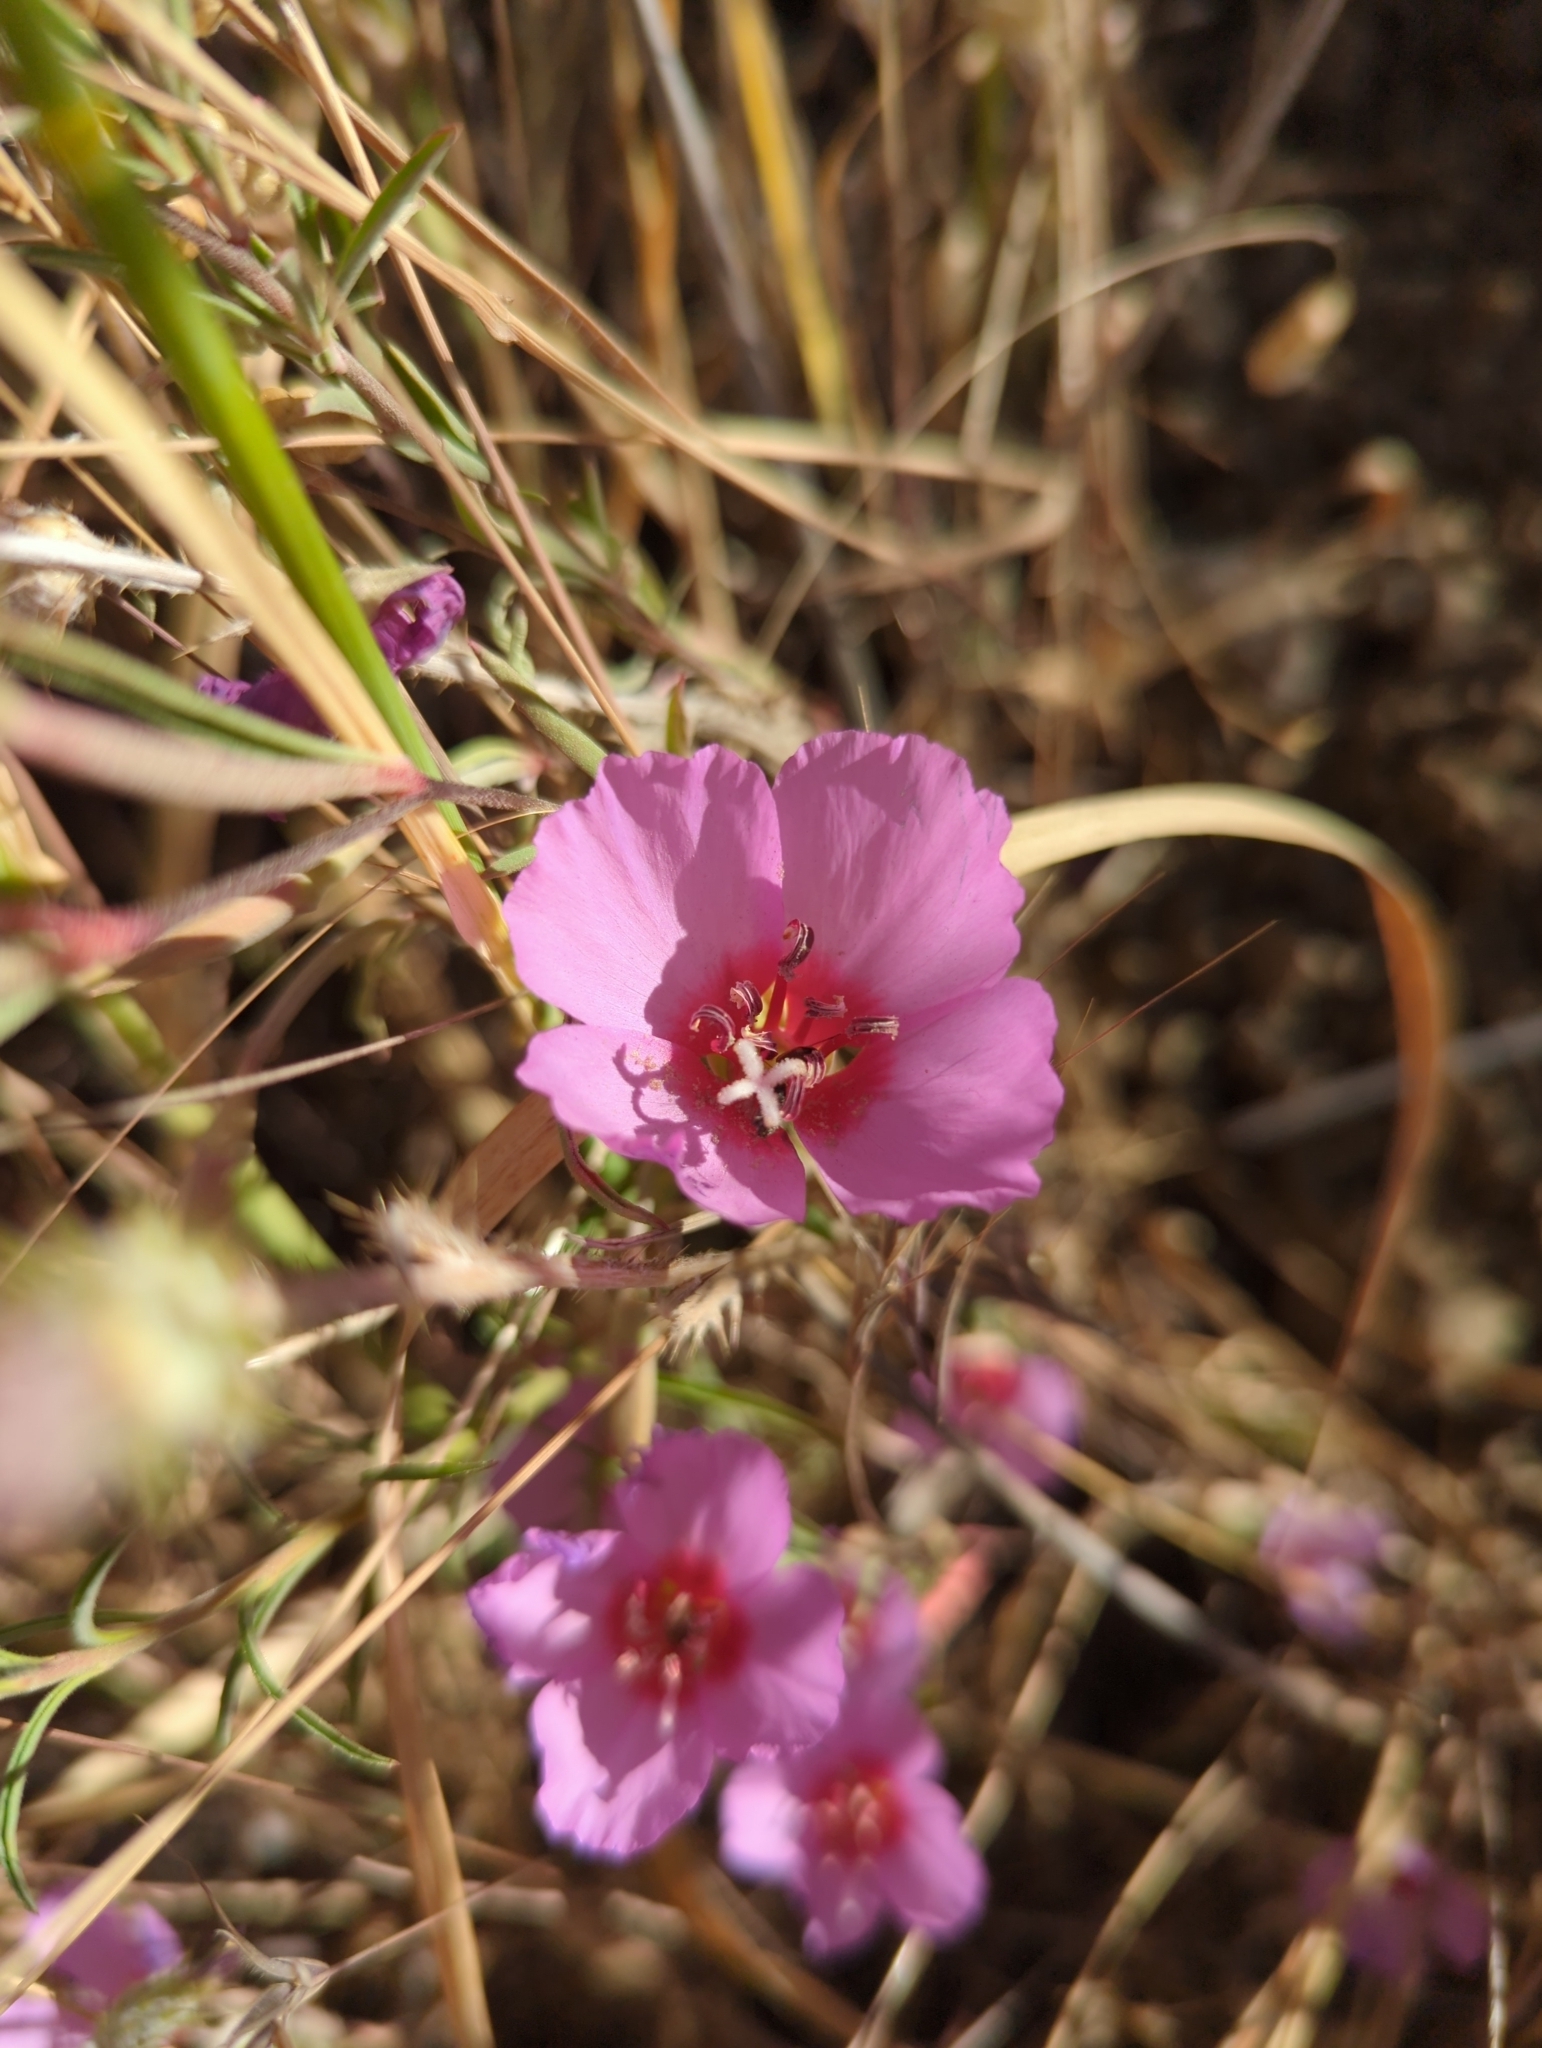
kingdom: Plantae
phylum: Tracheophyta
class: Magnoliopsida
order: Myrtales
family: Onagraceae
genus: Clarkia
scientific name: Clarkia rubicunda
